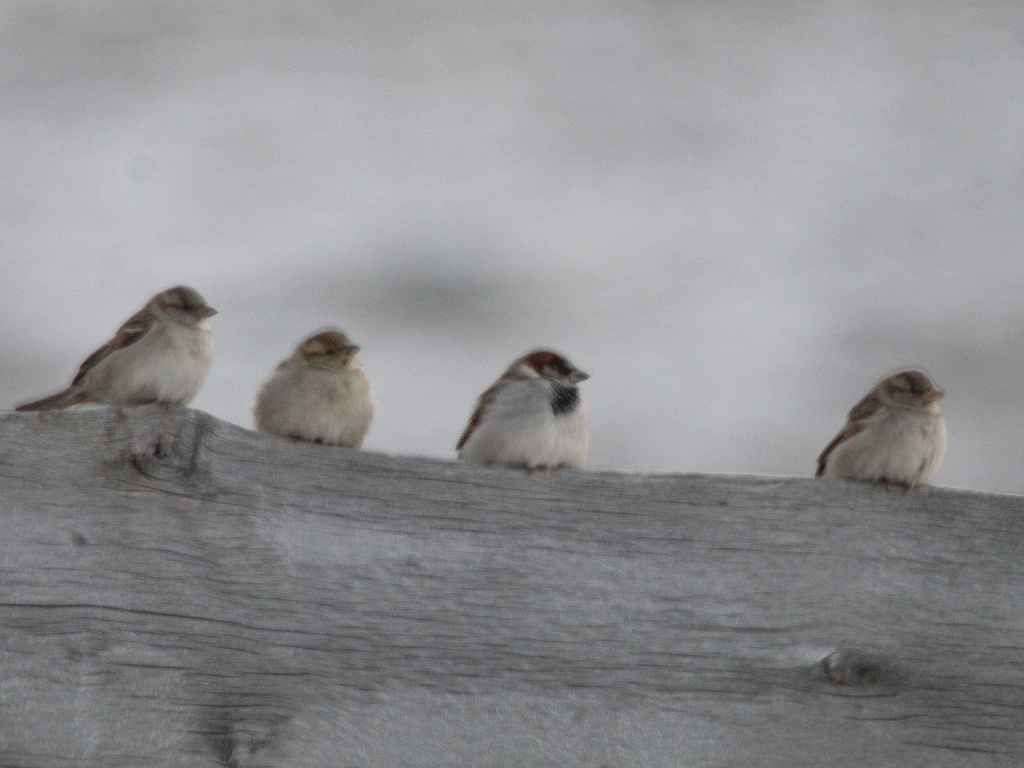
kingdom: Animalia
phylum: Chordata
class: Aves
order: Passeriformes
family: Passeridae
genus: Passer
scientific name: Passer domesticus
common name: House sparrow
